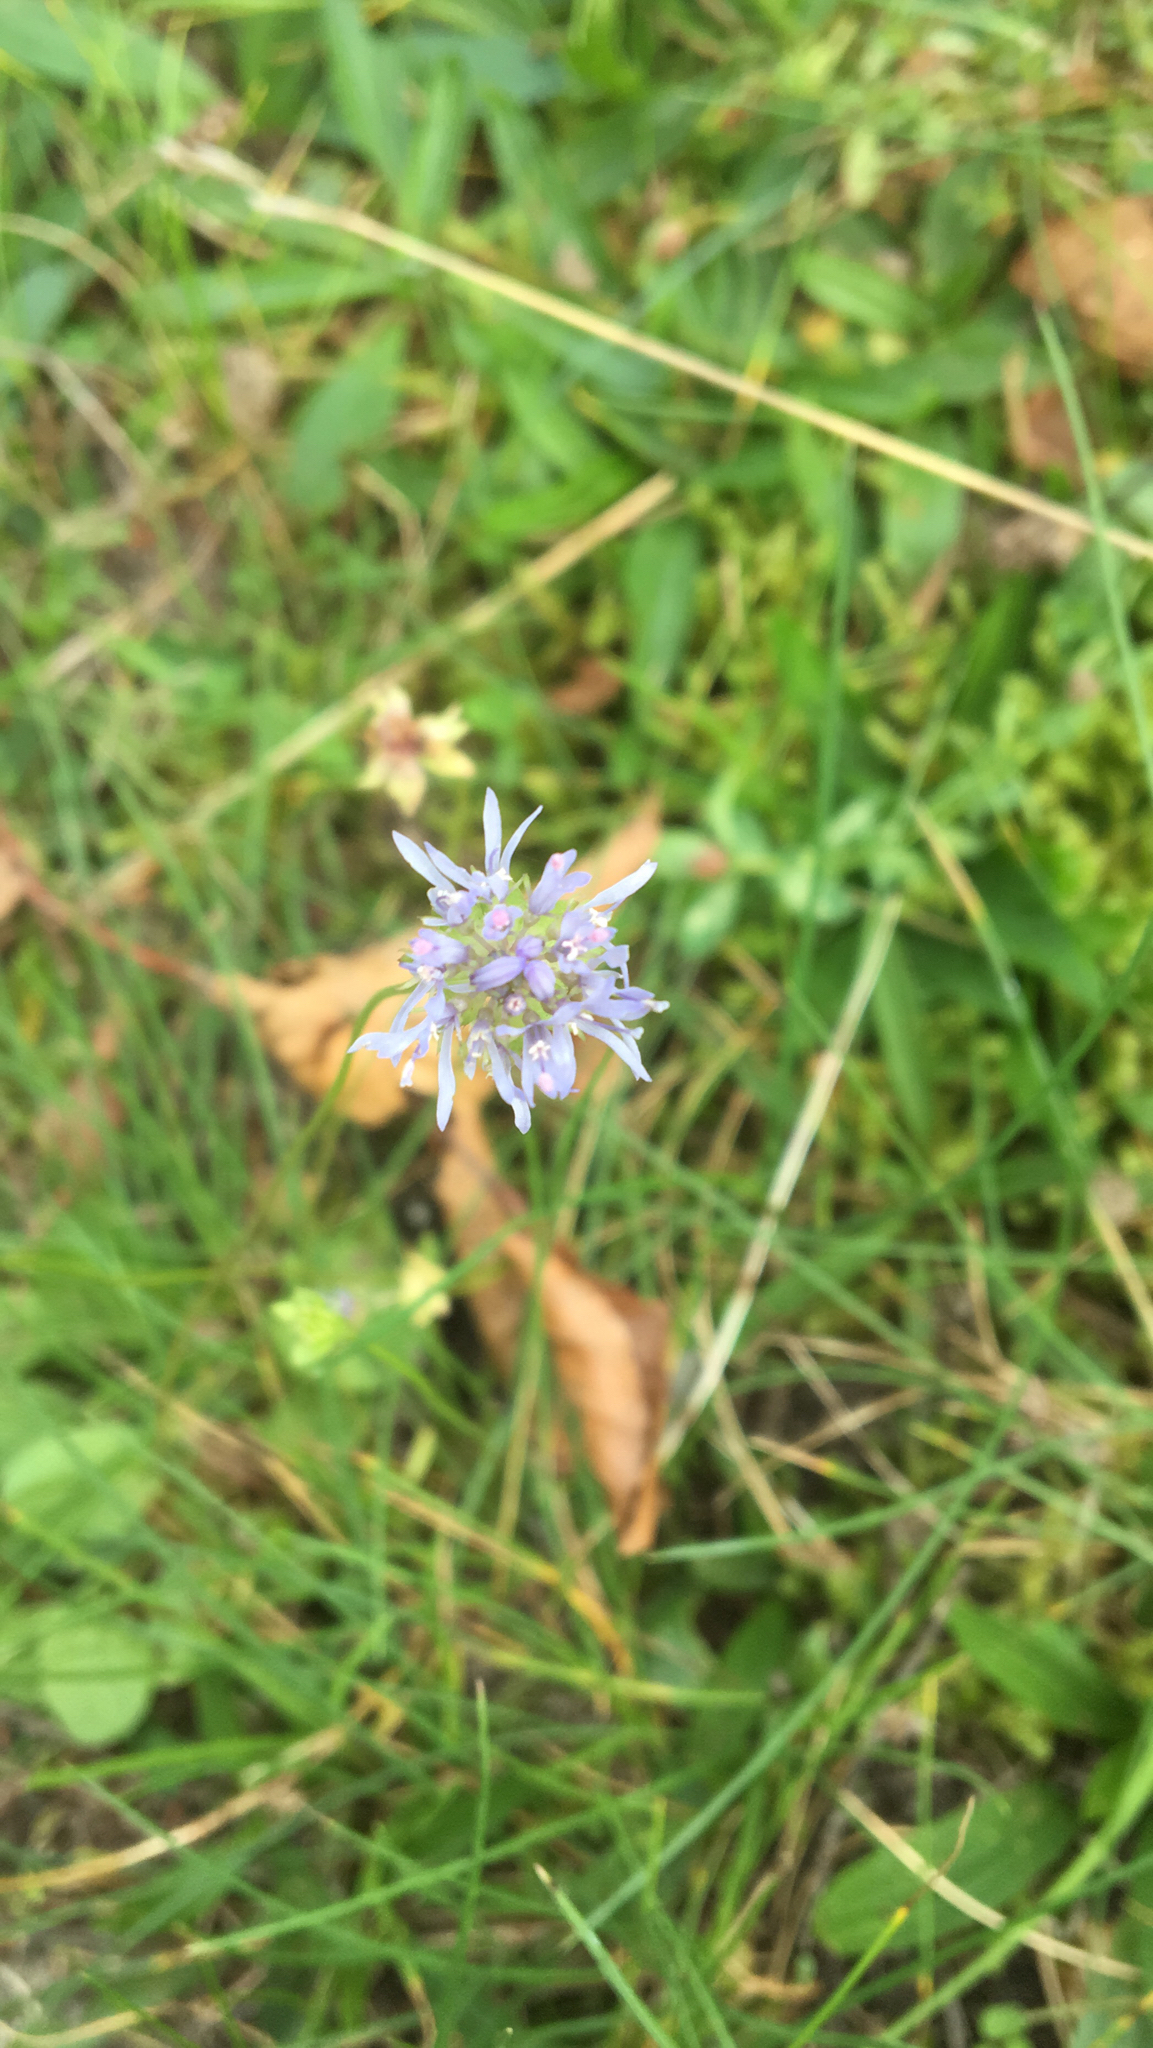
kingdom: Plantae
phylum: Tracheophyta
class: Magnoliopsida
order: Asterales
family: Campanulaceae
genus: Jasione
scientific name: Jasione montana
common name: Sheep's-bit
